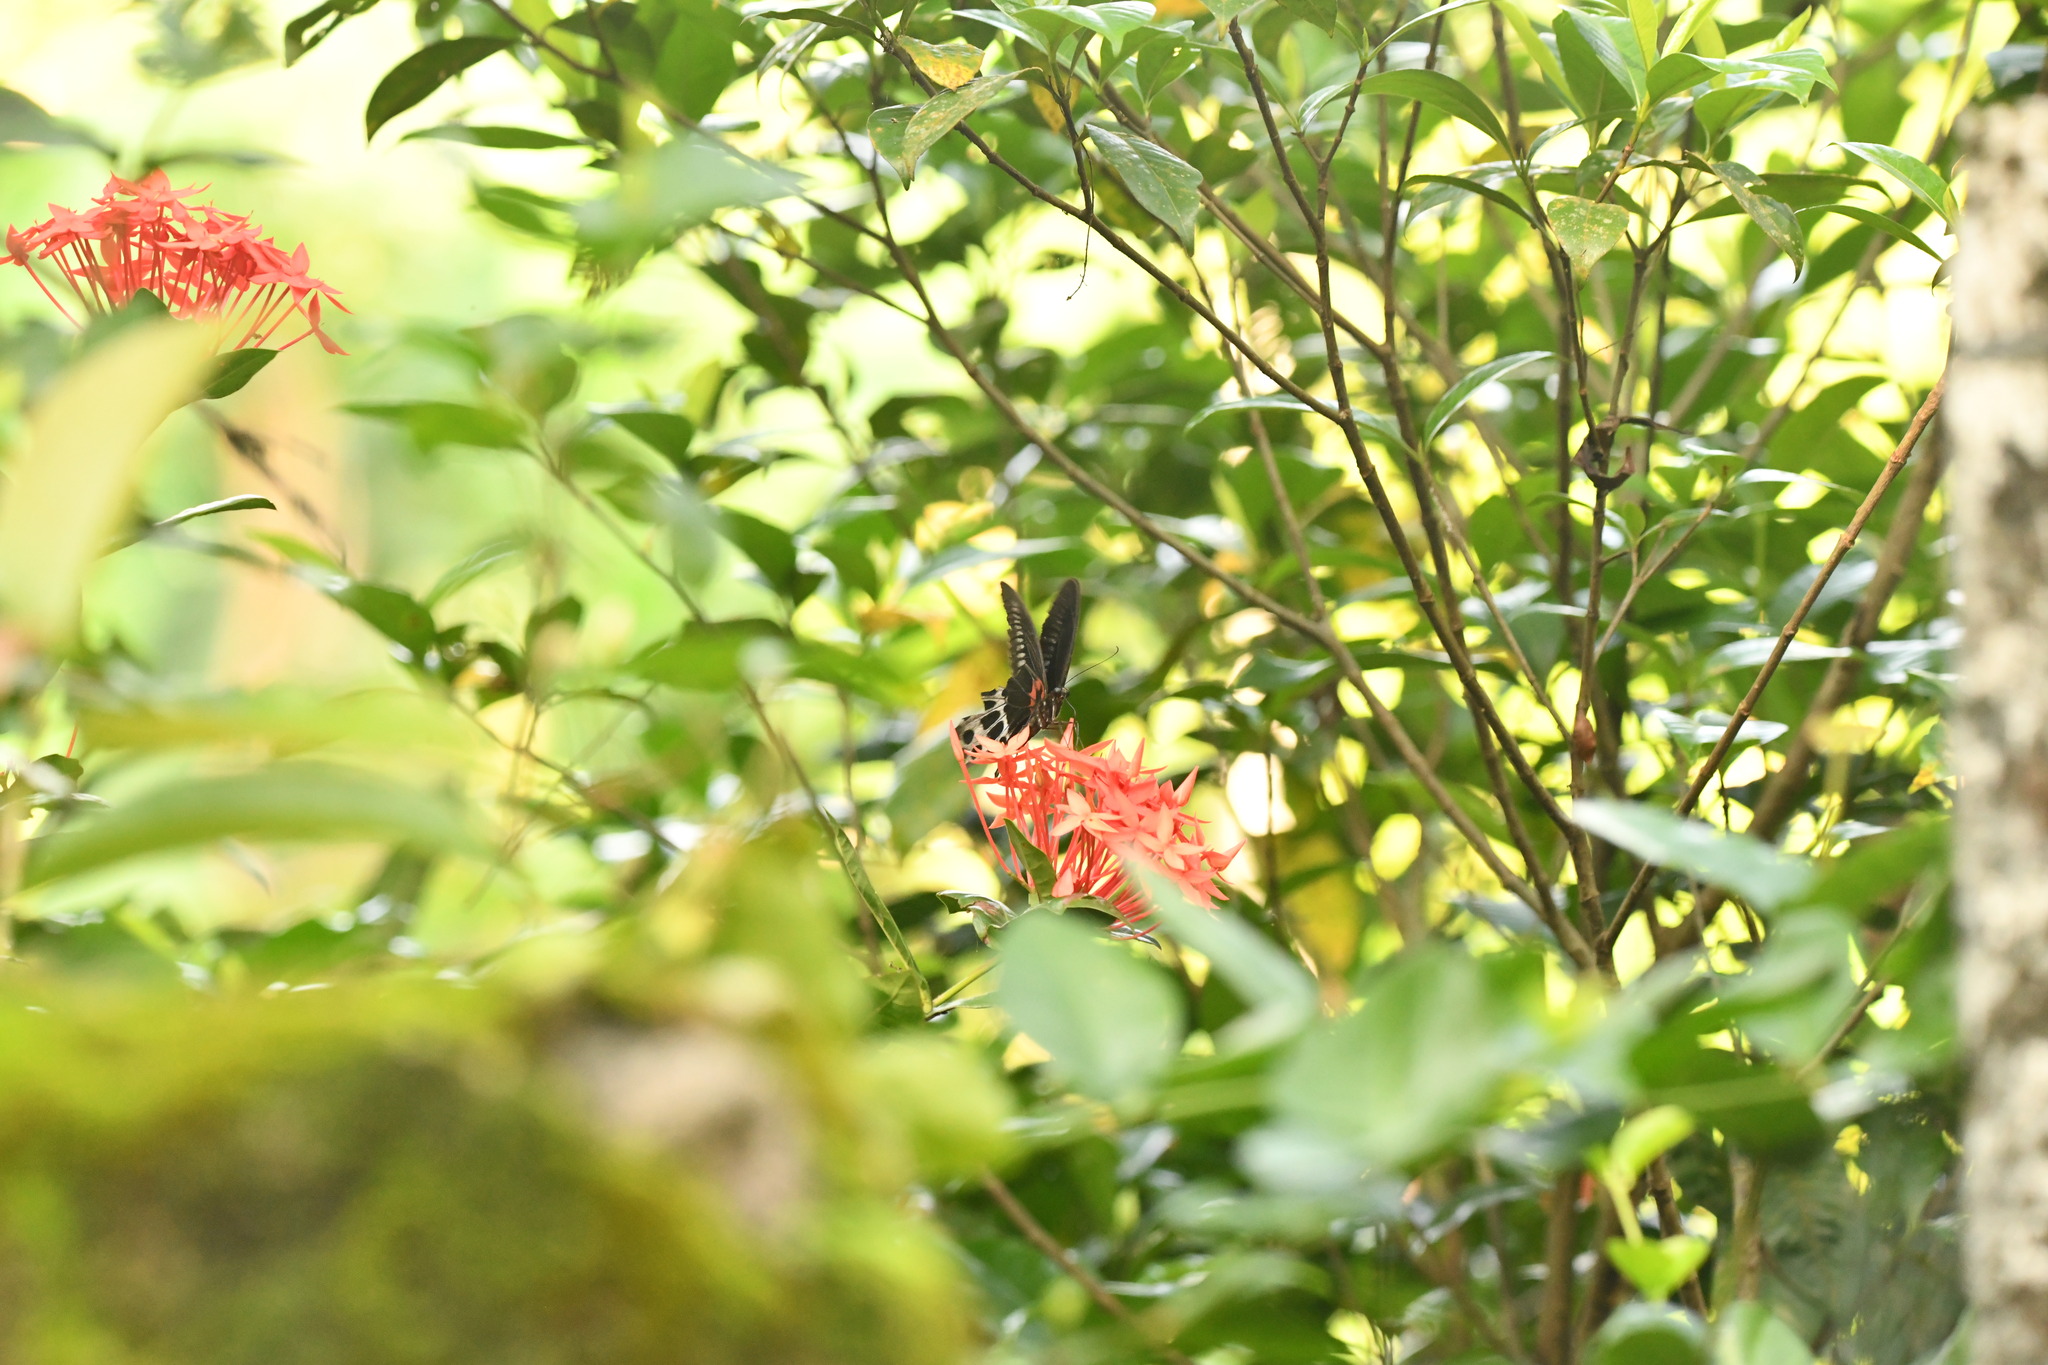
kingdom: Animalia
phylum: Arthropoda
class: Insecta
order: Lepidoptera
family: Papilionidae
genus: Papilio
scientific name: Papilio memnon
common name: Great mormon
